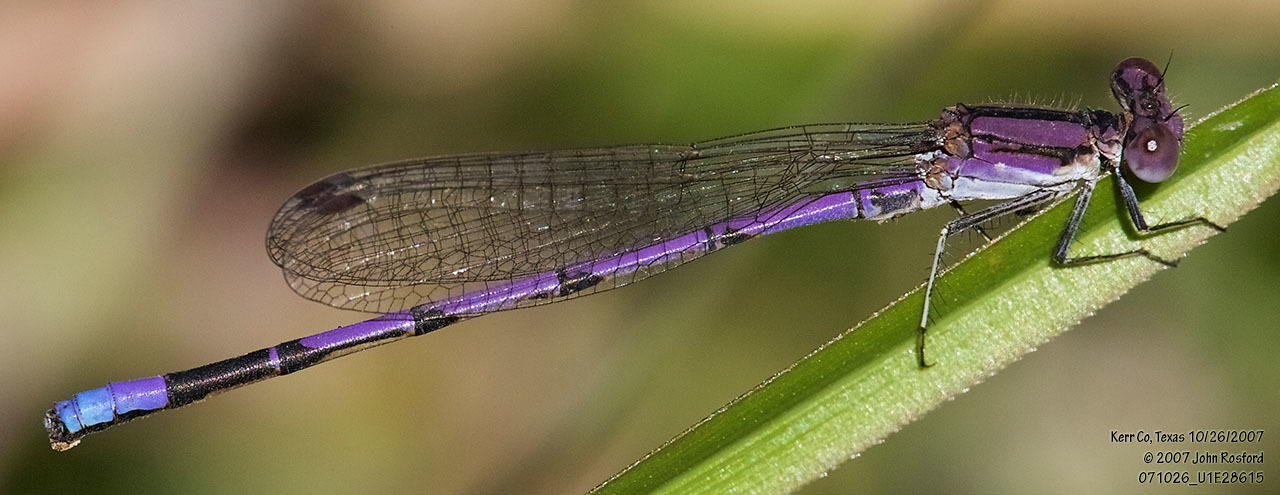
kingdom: Animalia
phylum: Arthropoda
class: Insecta
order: Odonata
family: Coenagrionidae
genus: Argia
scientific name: Argia fumipennis
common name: Variable dancer
